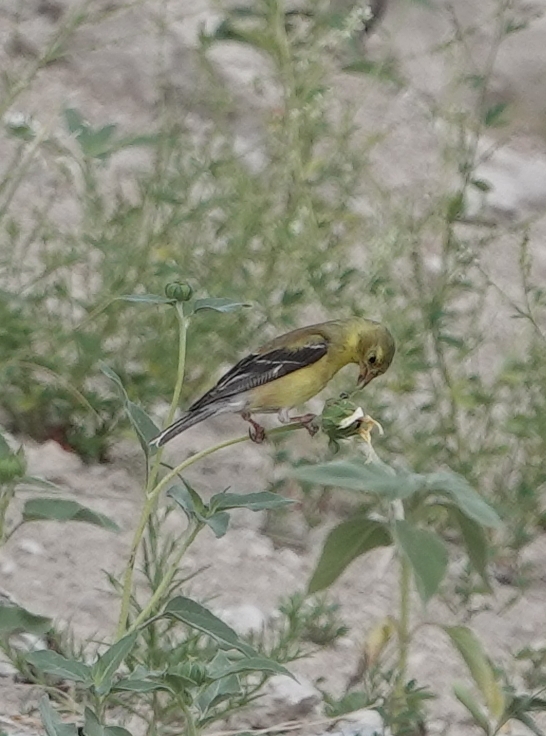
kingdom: Animalia
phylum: Chordata
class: Aves
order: Passeriformes
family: Fringillidae
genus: Spinus
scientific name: Spinus tristis
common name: American goldfinch
